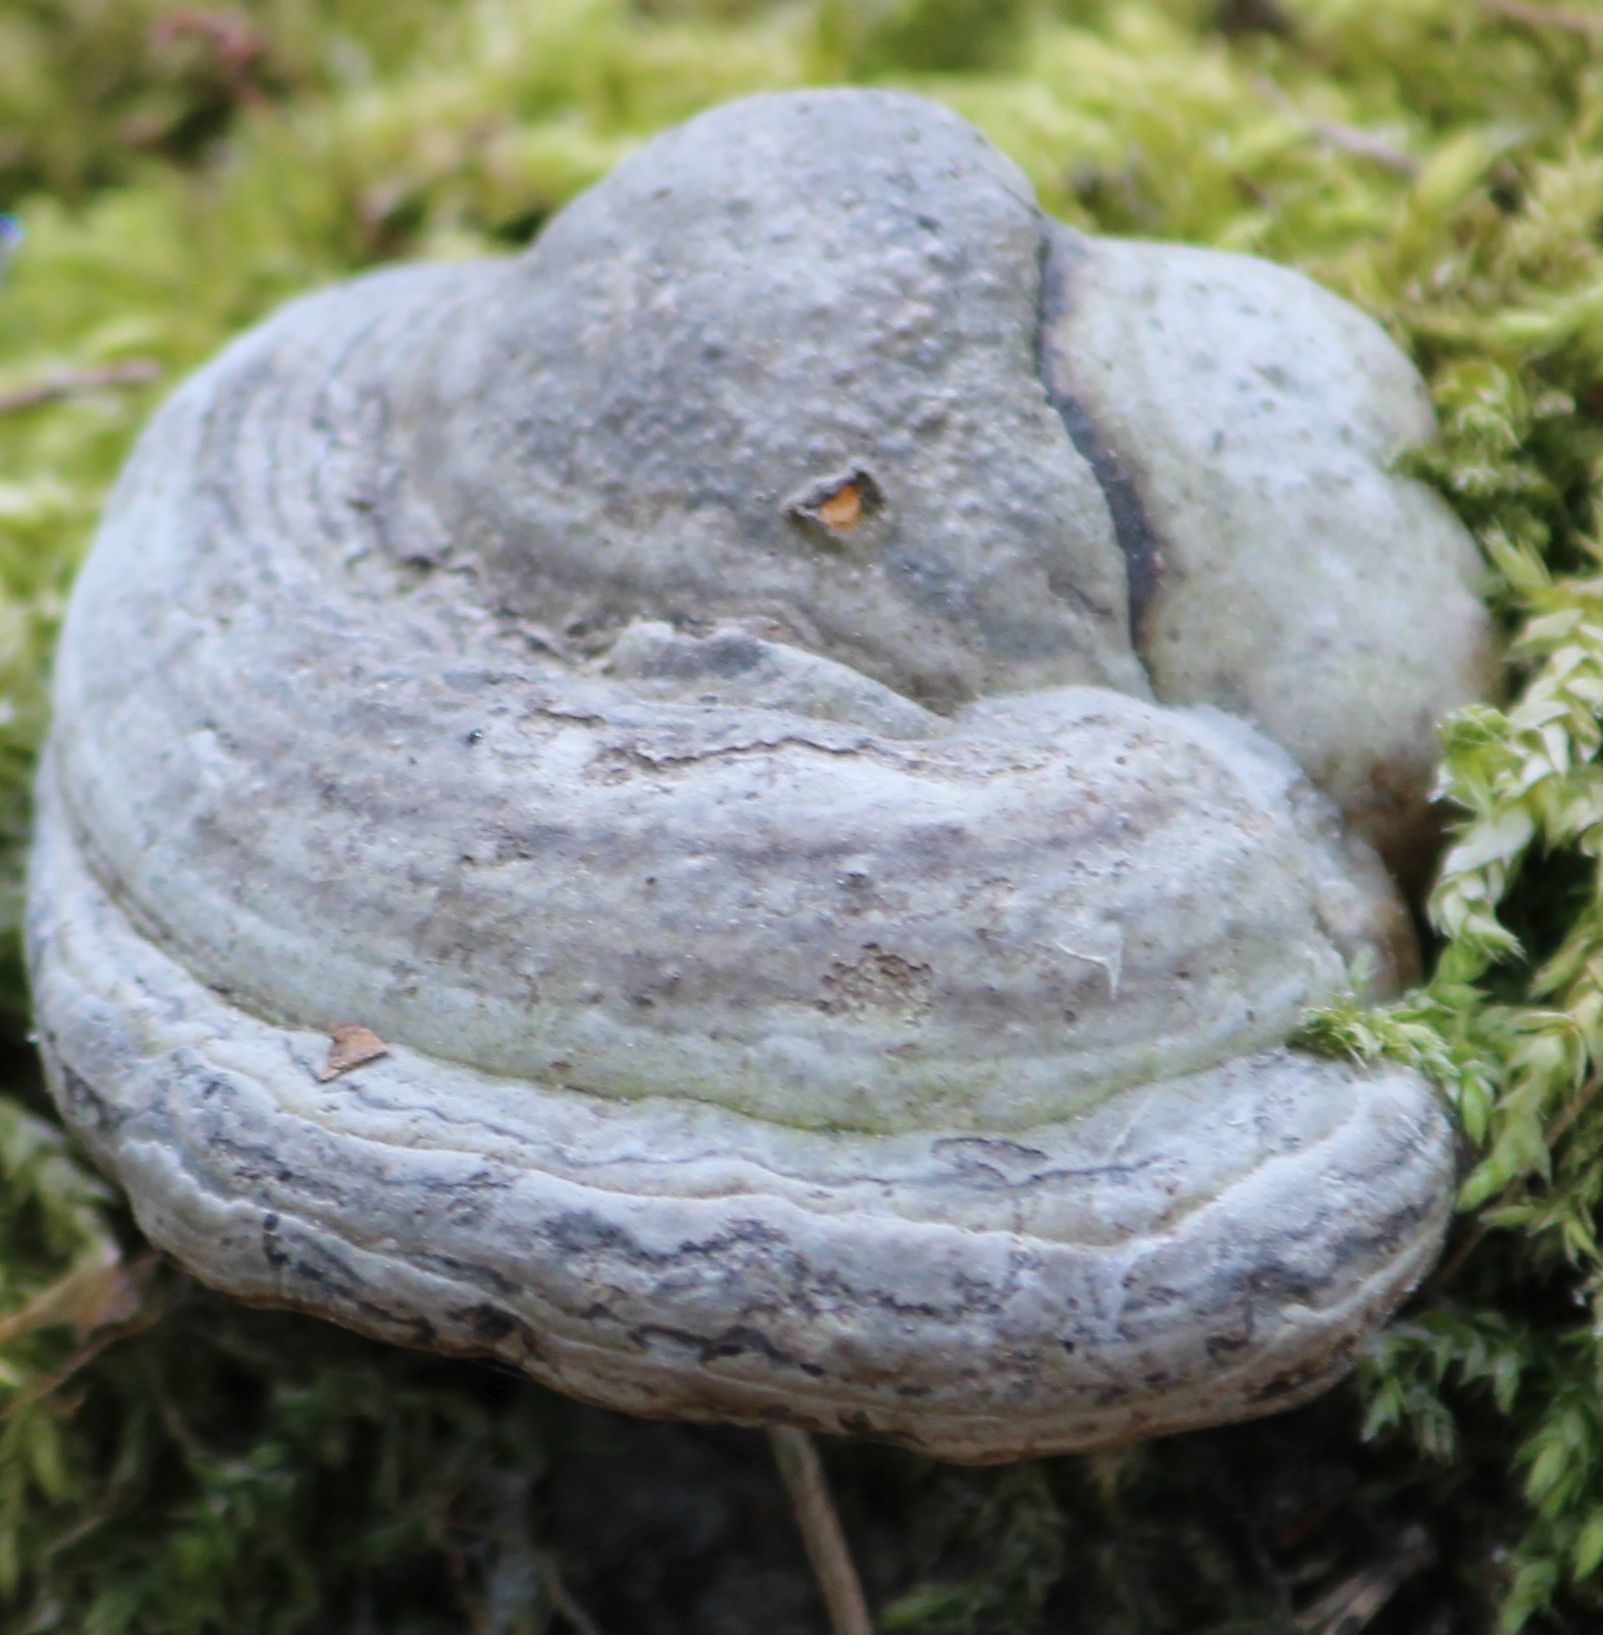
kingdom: Fungi
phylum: Basidiomycota
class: Agaricomycetes
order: Polyporales
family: Polyporaceae
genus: Fomes
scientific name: Fomes fomentarius
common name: Hoof fungus
